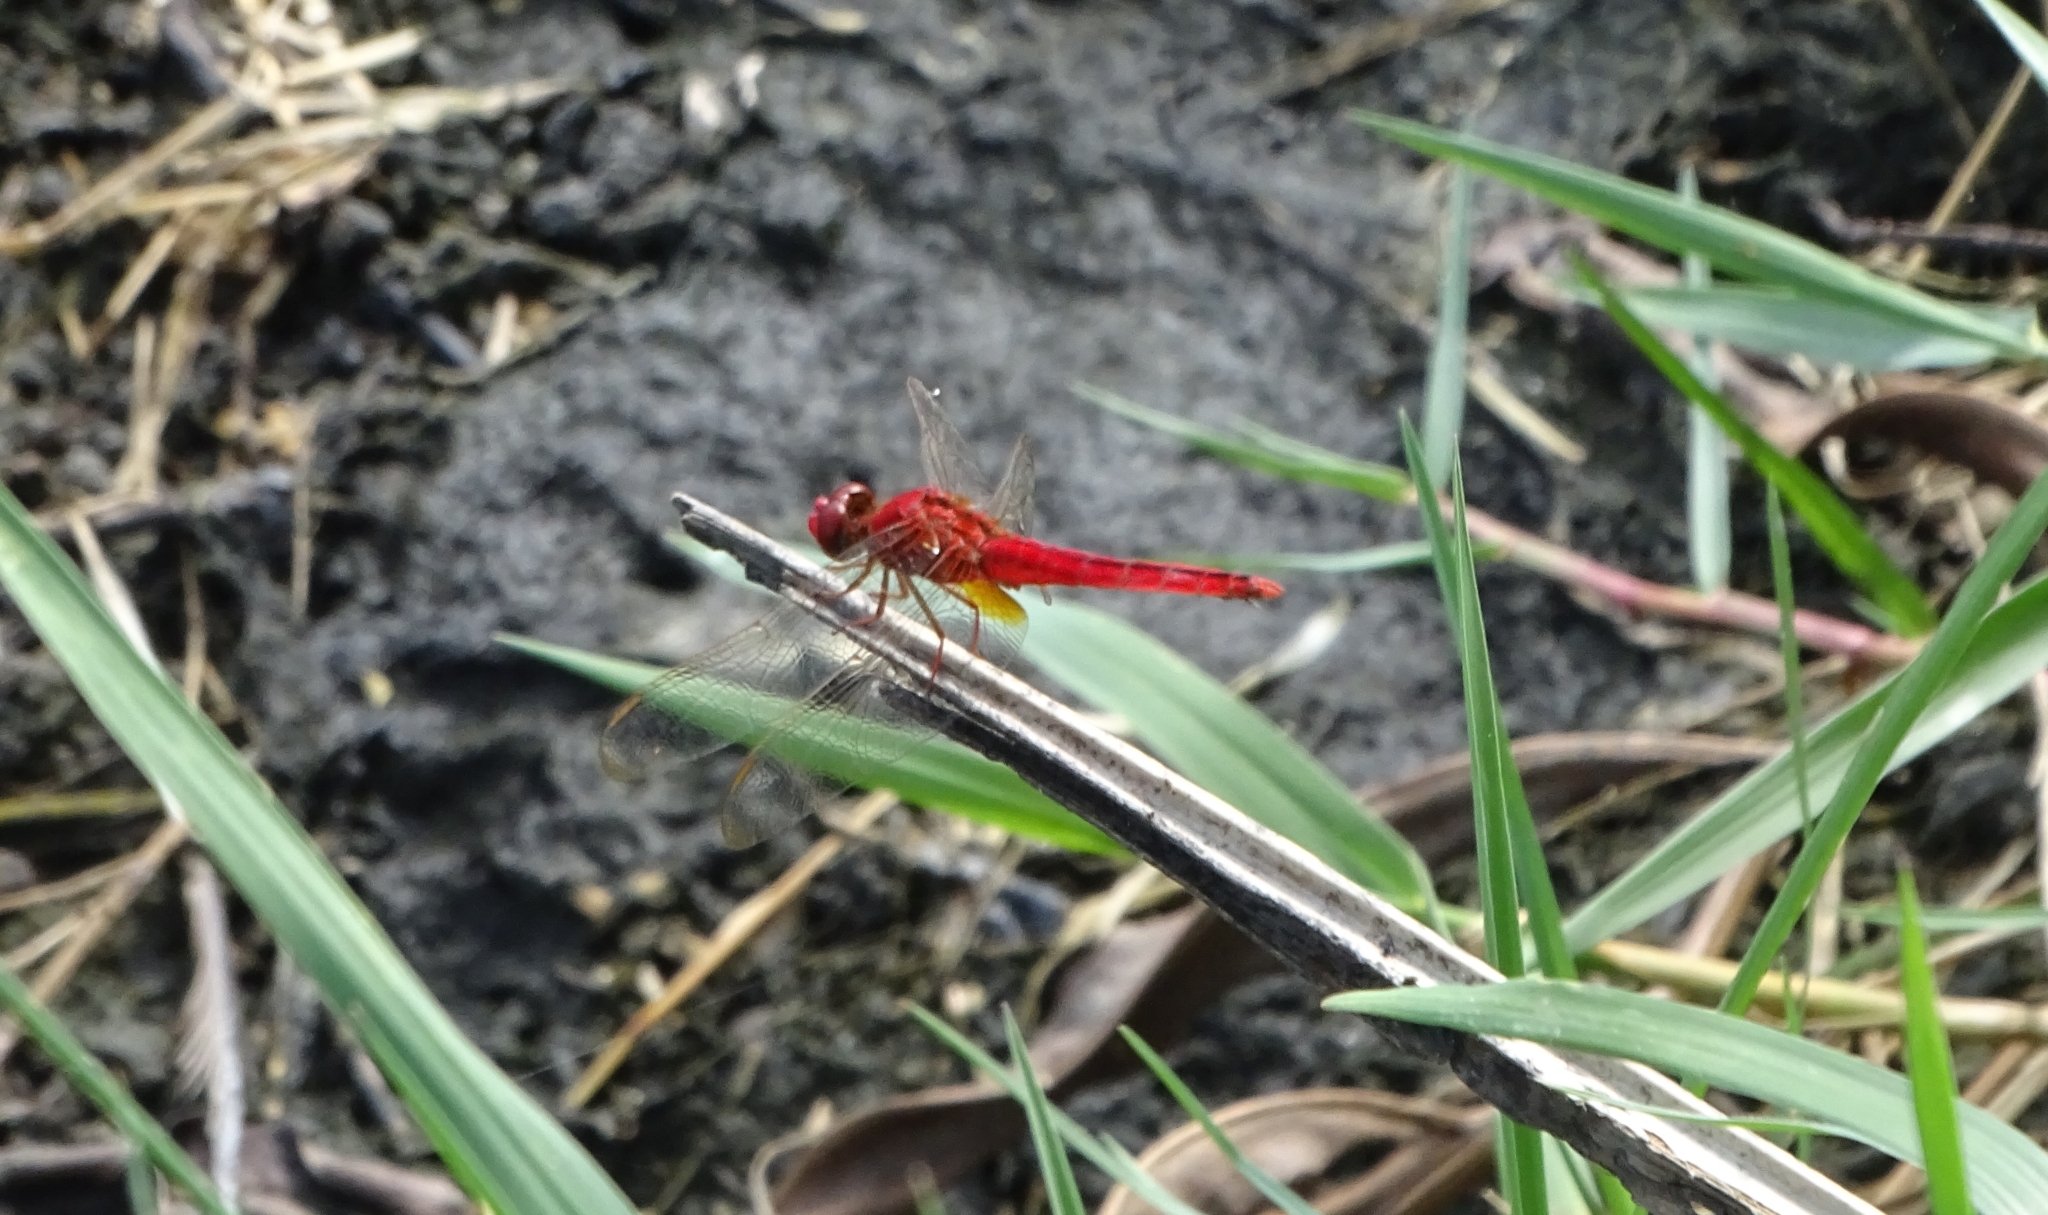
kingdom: Animalia
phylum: Arthropoda
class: Insecta
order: Odonata
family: Libellulidae
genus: Crocothemis
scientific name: Crocothemis servilia
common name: Scarlet skimmer
